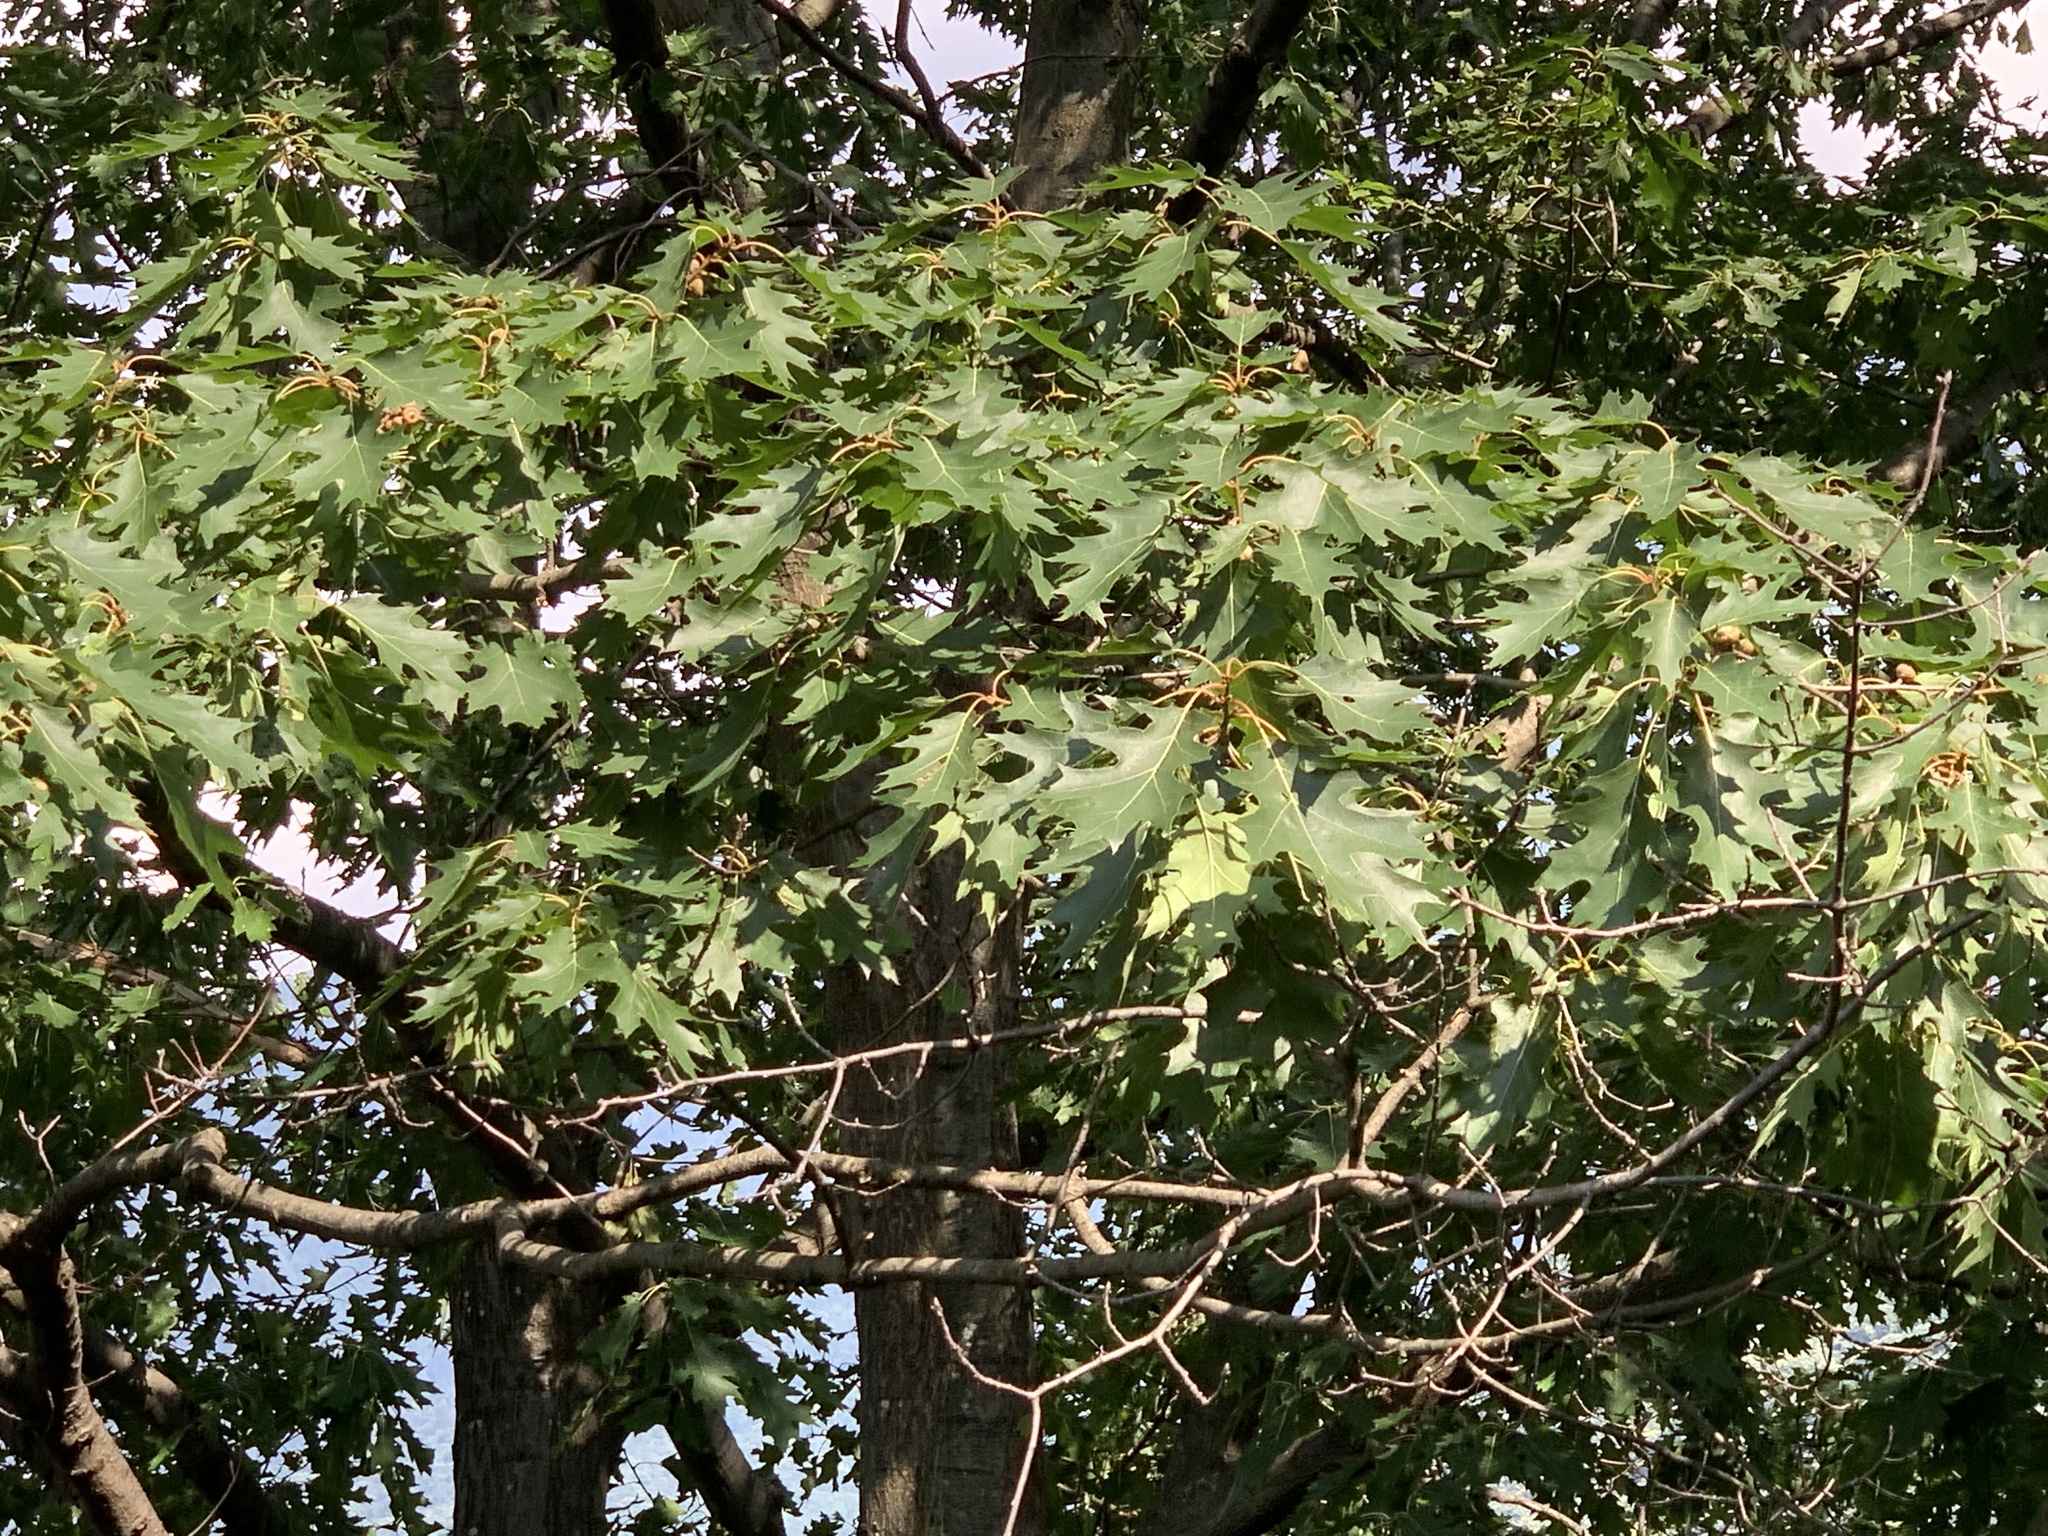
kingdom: Plantae
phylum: Tracheophyta
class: Magnoliopsida
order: Fagales
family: Fagaceae
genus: Quercus
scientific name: Quercus rubra
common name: Red oak
